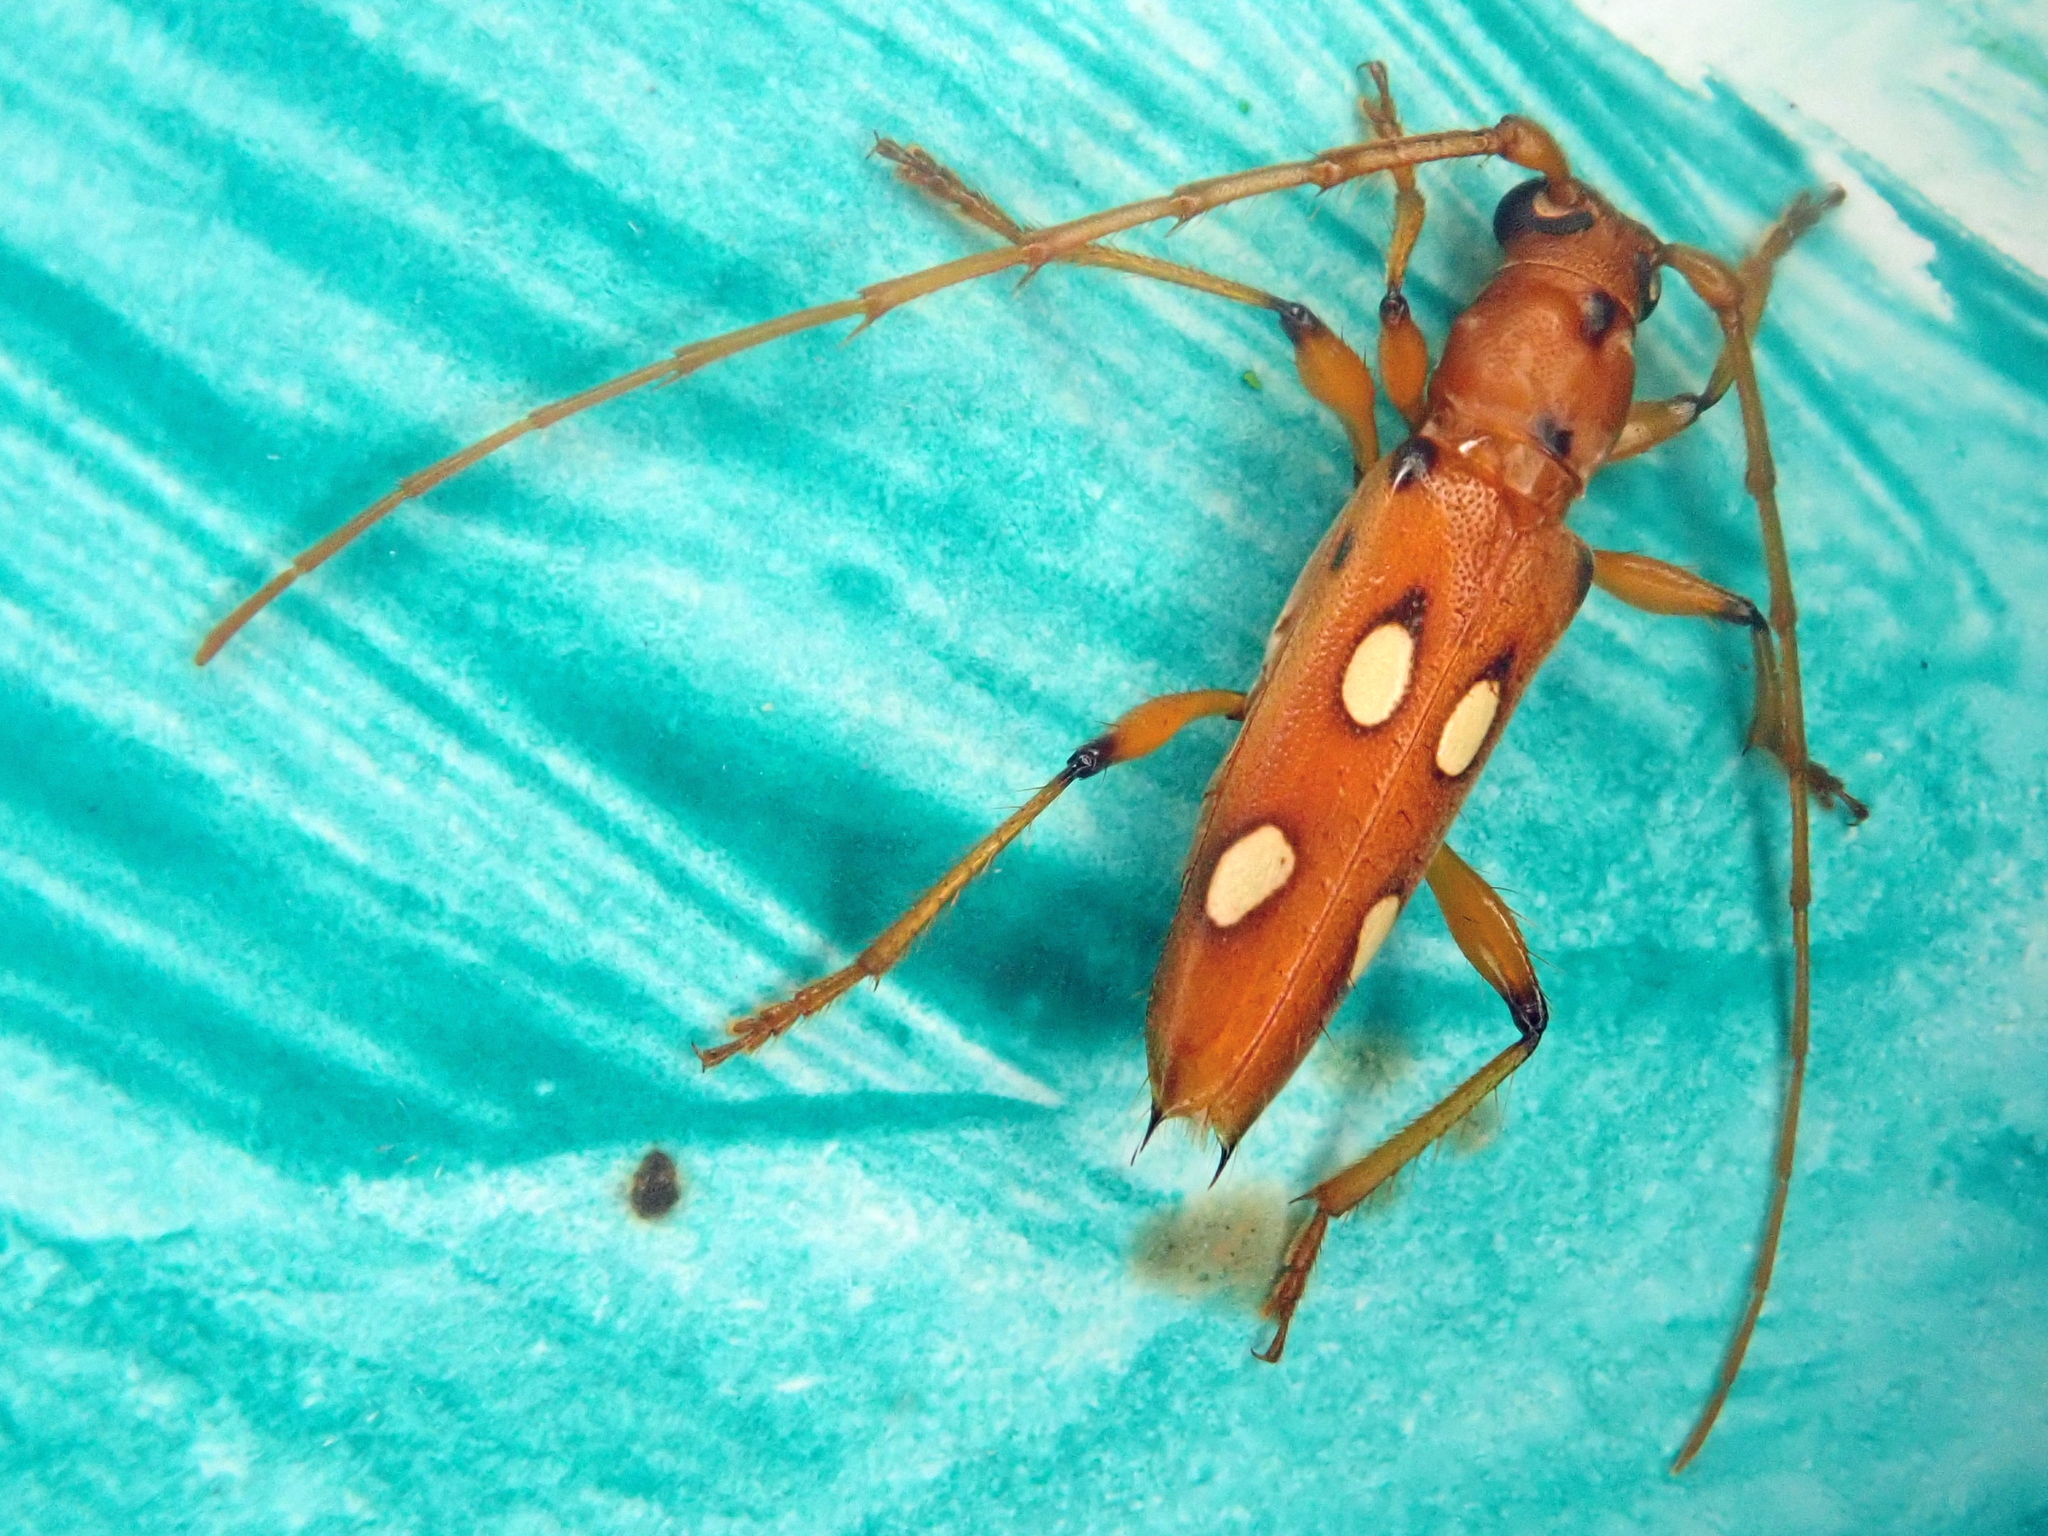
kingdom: Animalia
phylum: Arthropoda
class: Insecta
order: Coleoptera
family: Cerambycidae
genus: Paranyssicus
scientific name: Paranyssicus conspicillatus
